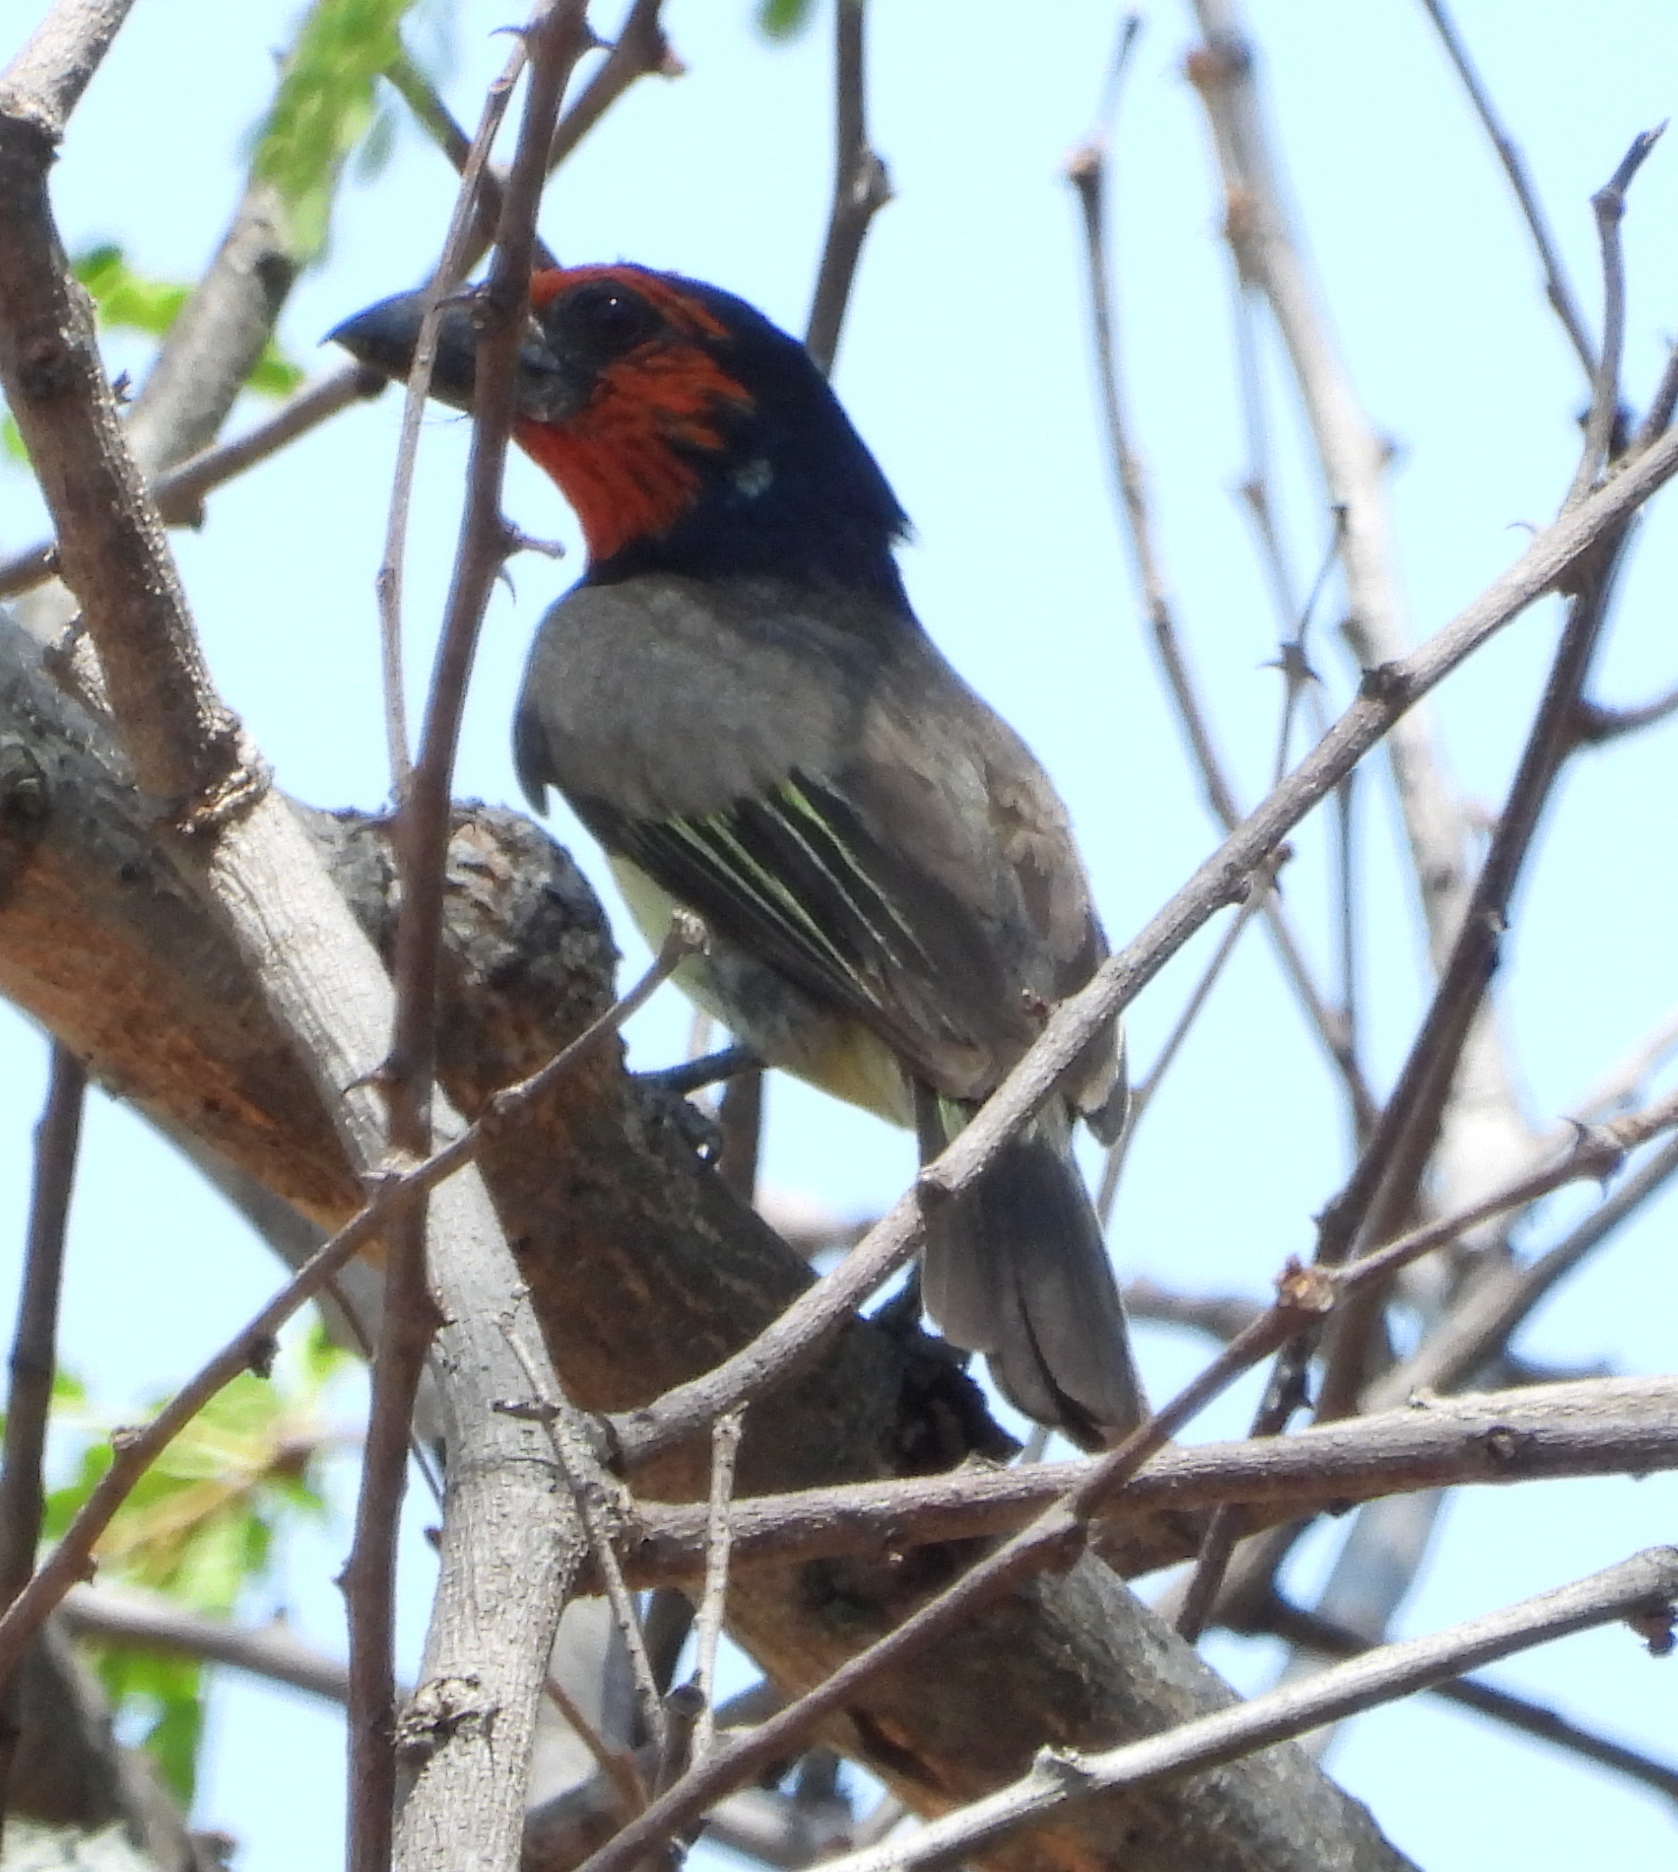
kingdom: Animalia
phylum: Chordata
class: Aves
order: Piciformes
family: Lybiidae
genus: Lybius
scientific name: Lybius torquatus
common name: Black-collared barbet
